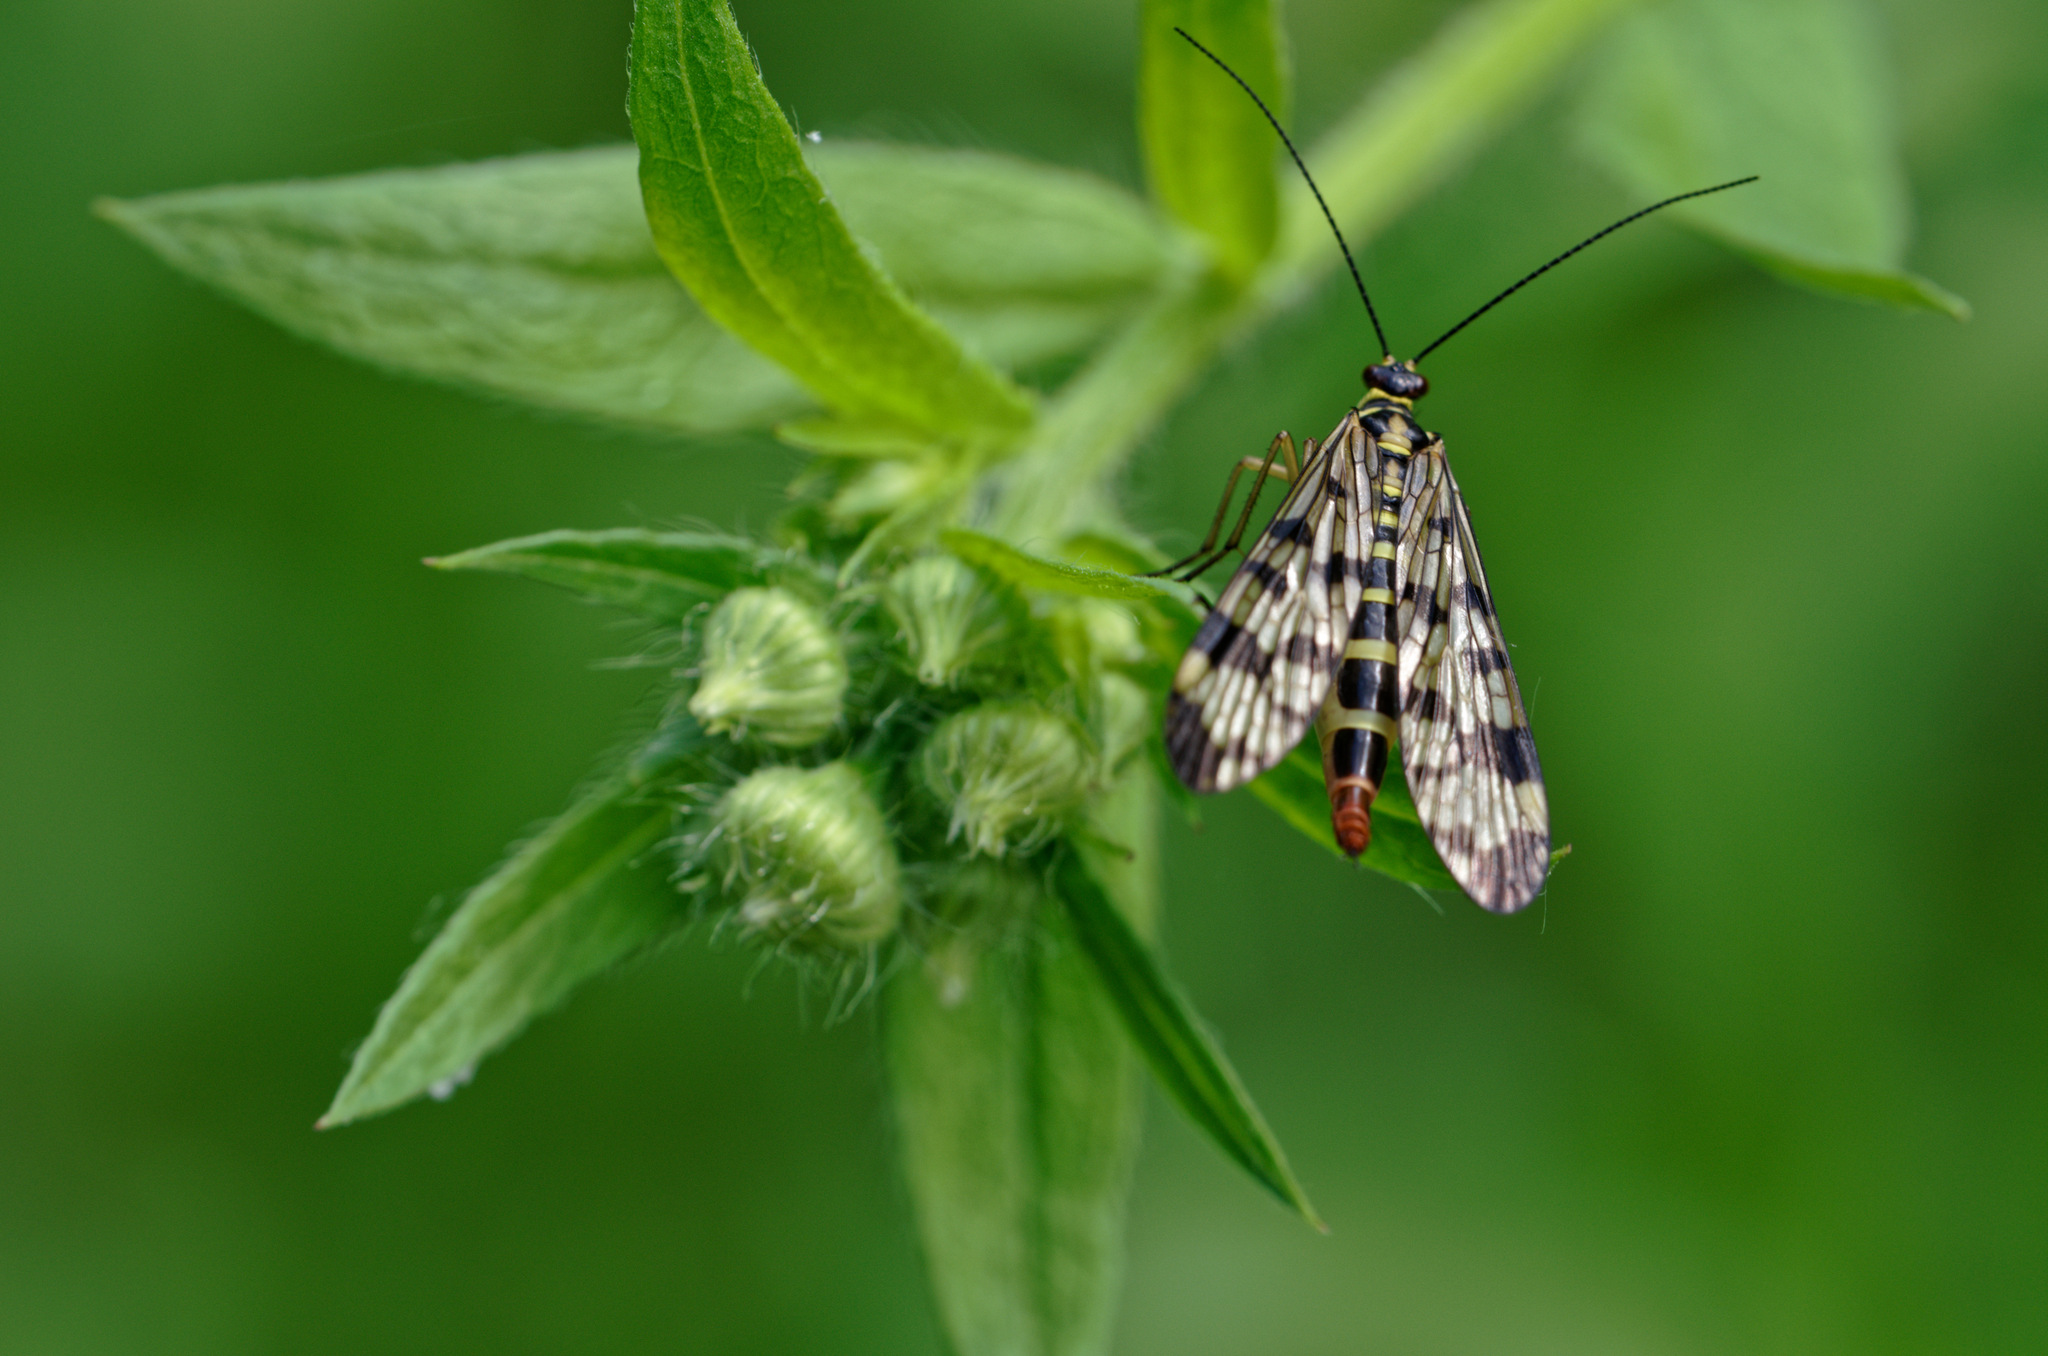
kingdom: Animalia
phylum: Arthropoda
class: Insecta
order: Mecoptera
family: Panorpidae
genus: Panorpa
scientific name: Panorpa communis
